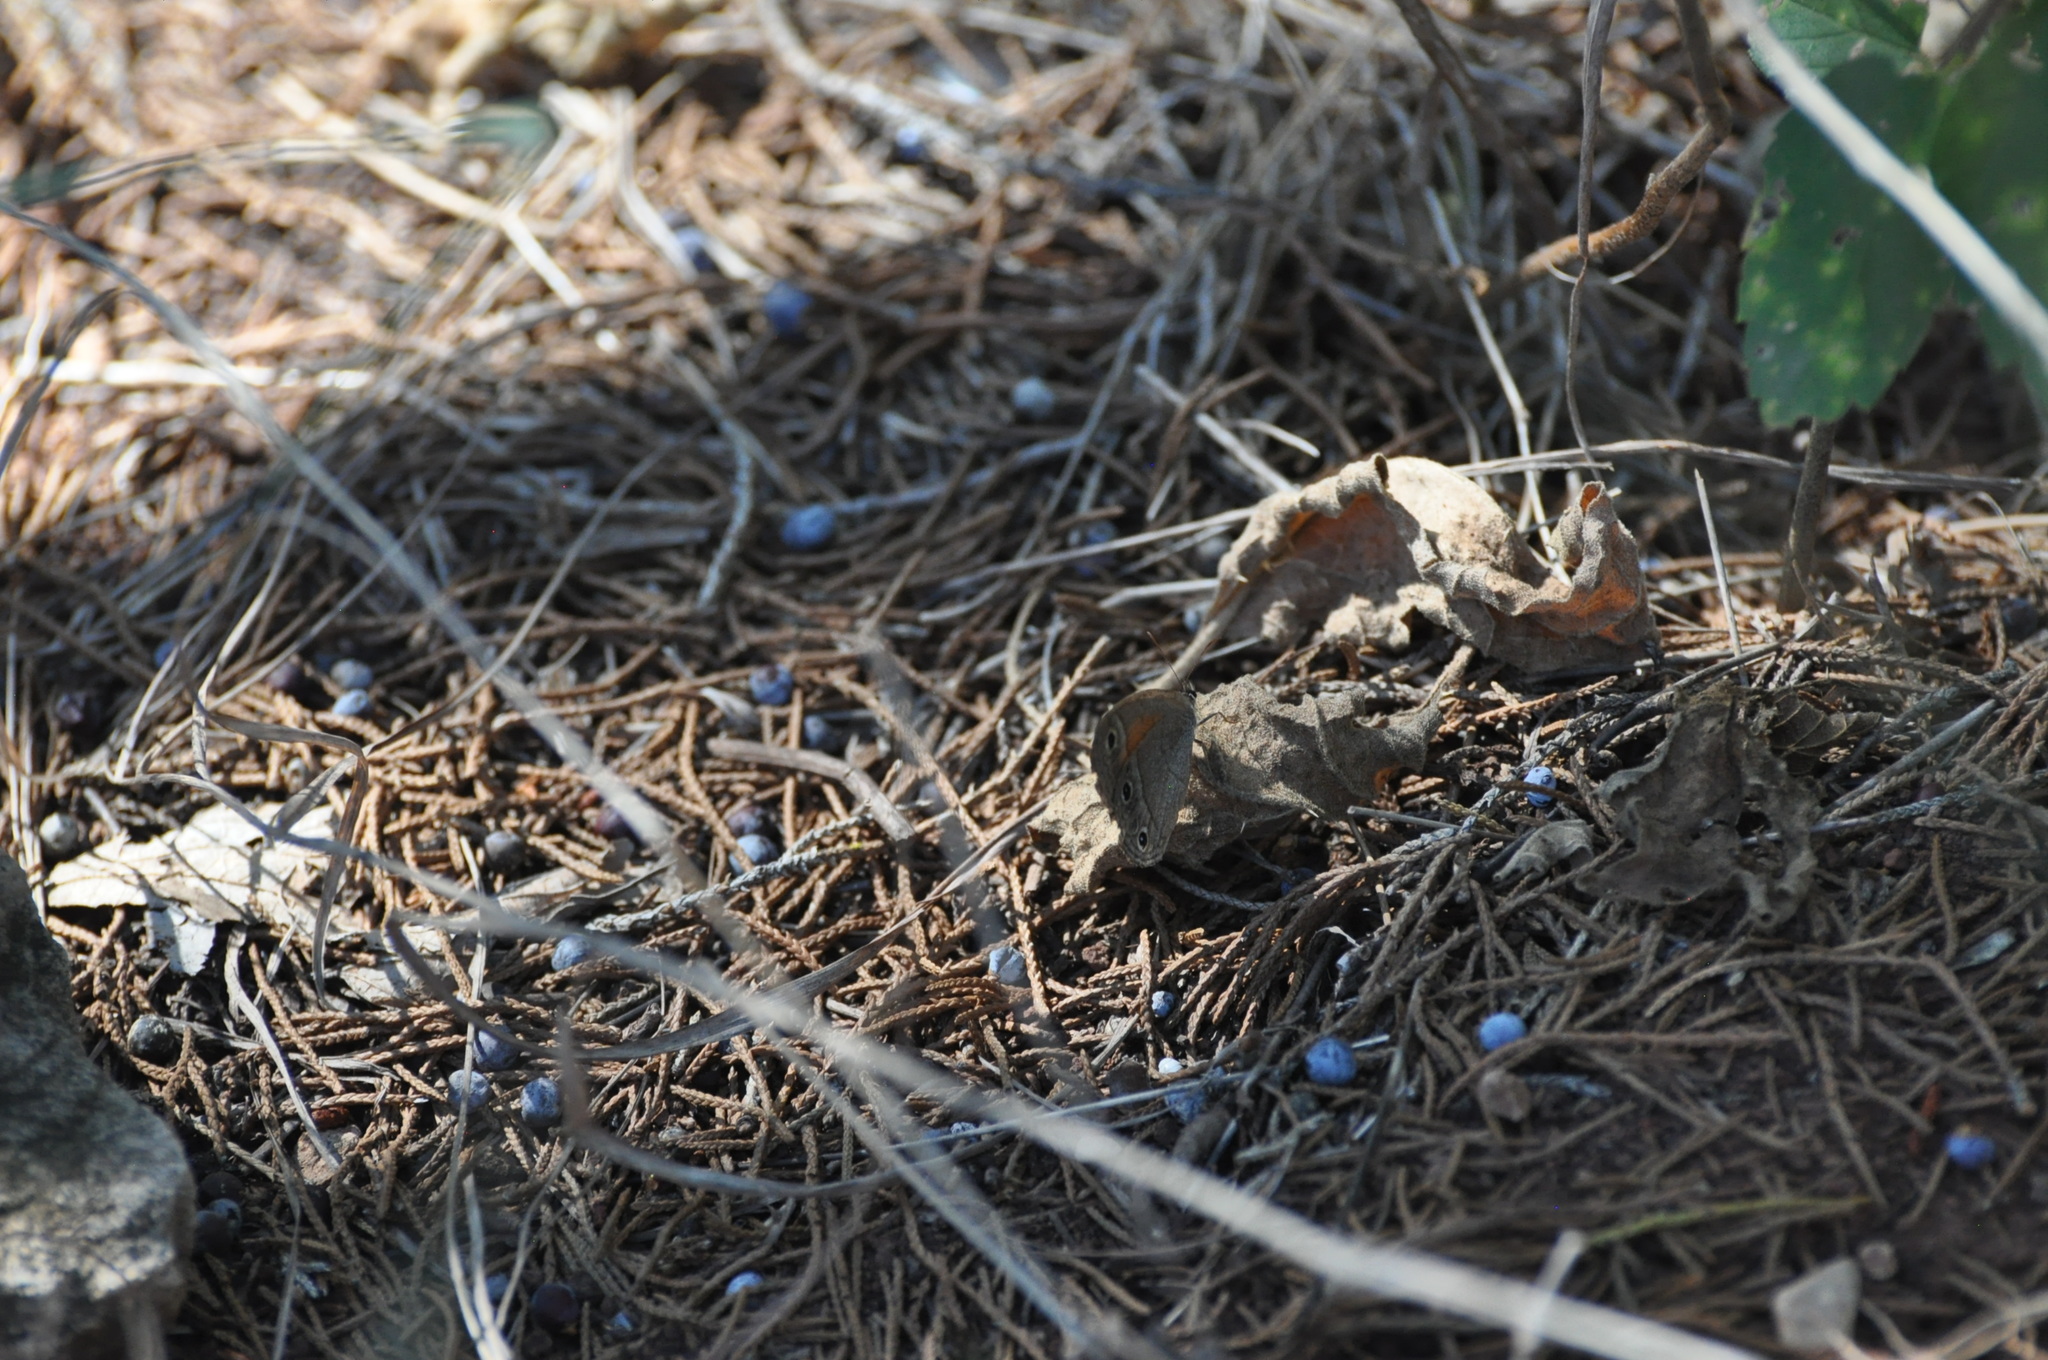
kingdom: Animalia
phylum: Arthropoda
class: Insecta
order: Lepidoptera
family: Nymphalidae
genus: Euptychia
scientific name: Euptychia Cissia rubricata
